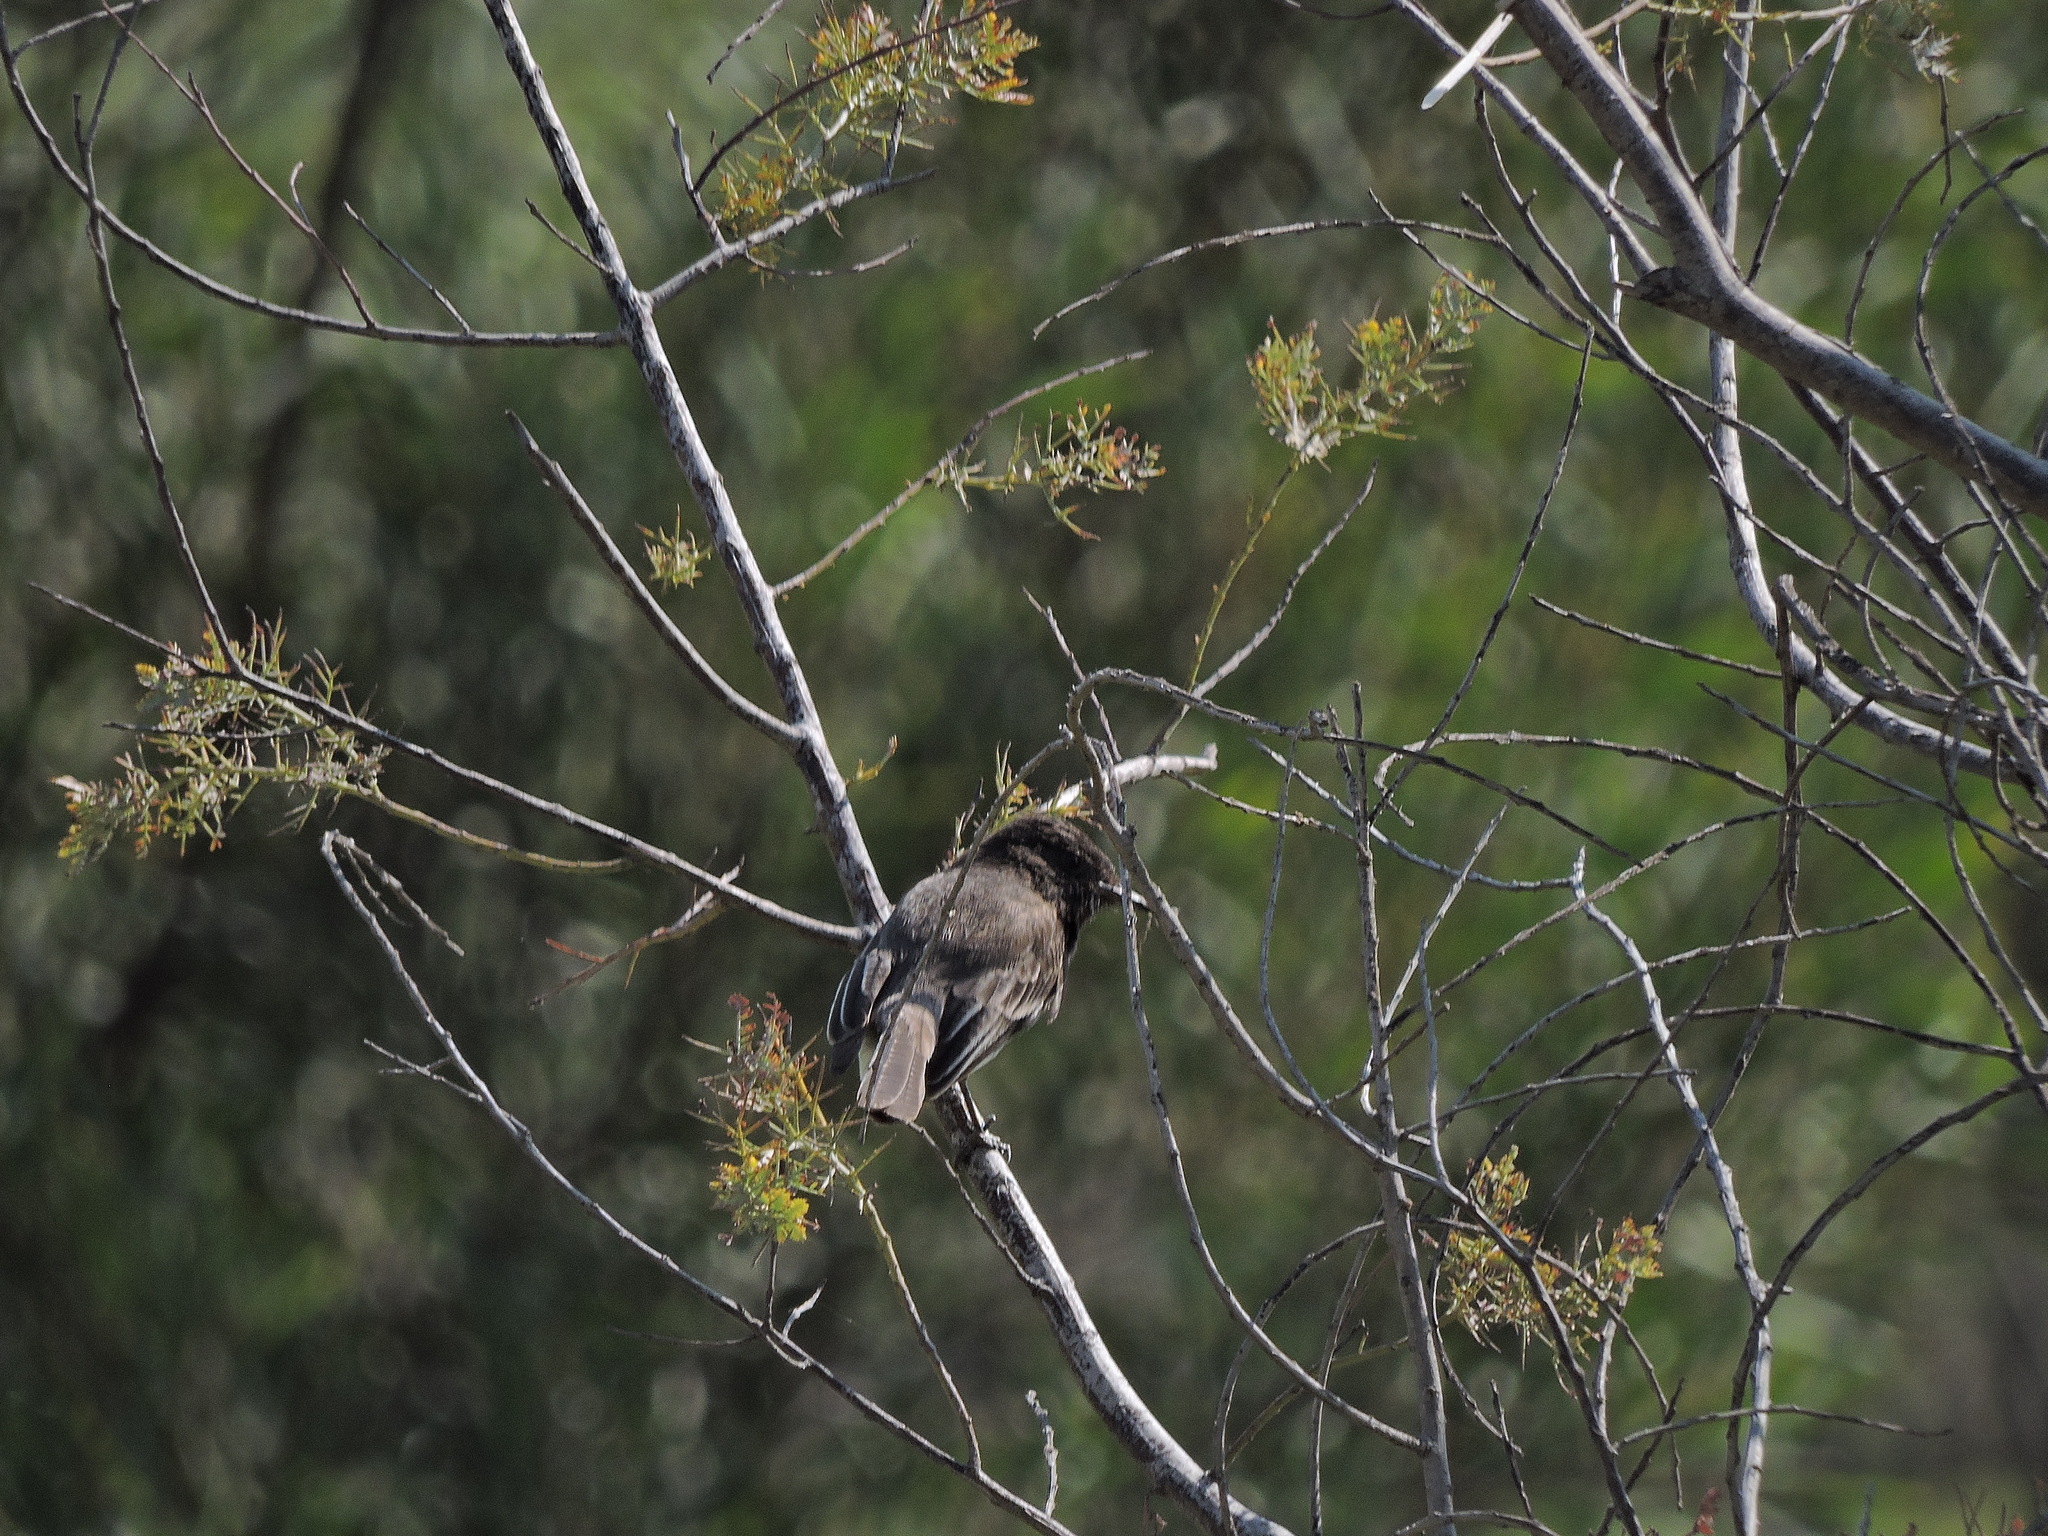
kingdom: Animalia
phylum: Chordata
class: Aves
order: Passeriformes
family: Tyrannidae
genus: Sayornis
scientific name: Sayornis nigricans
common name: Black phoebe
